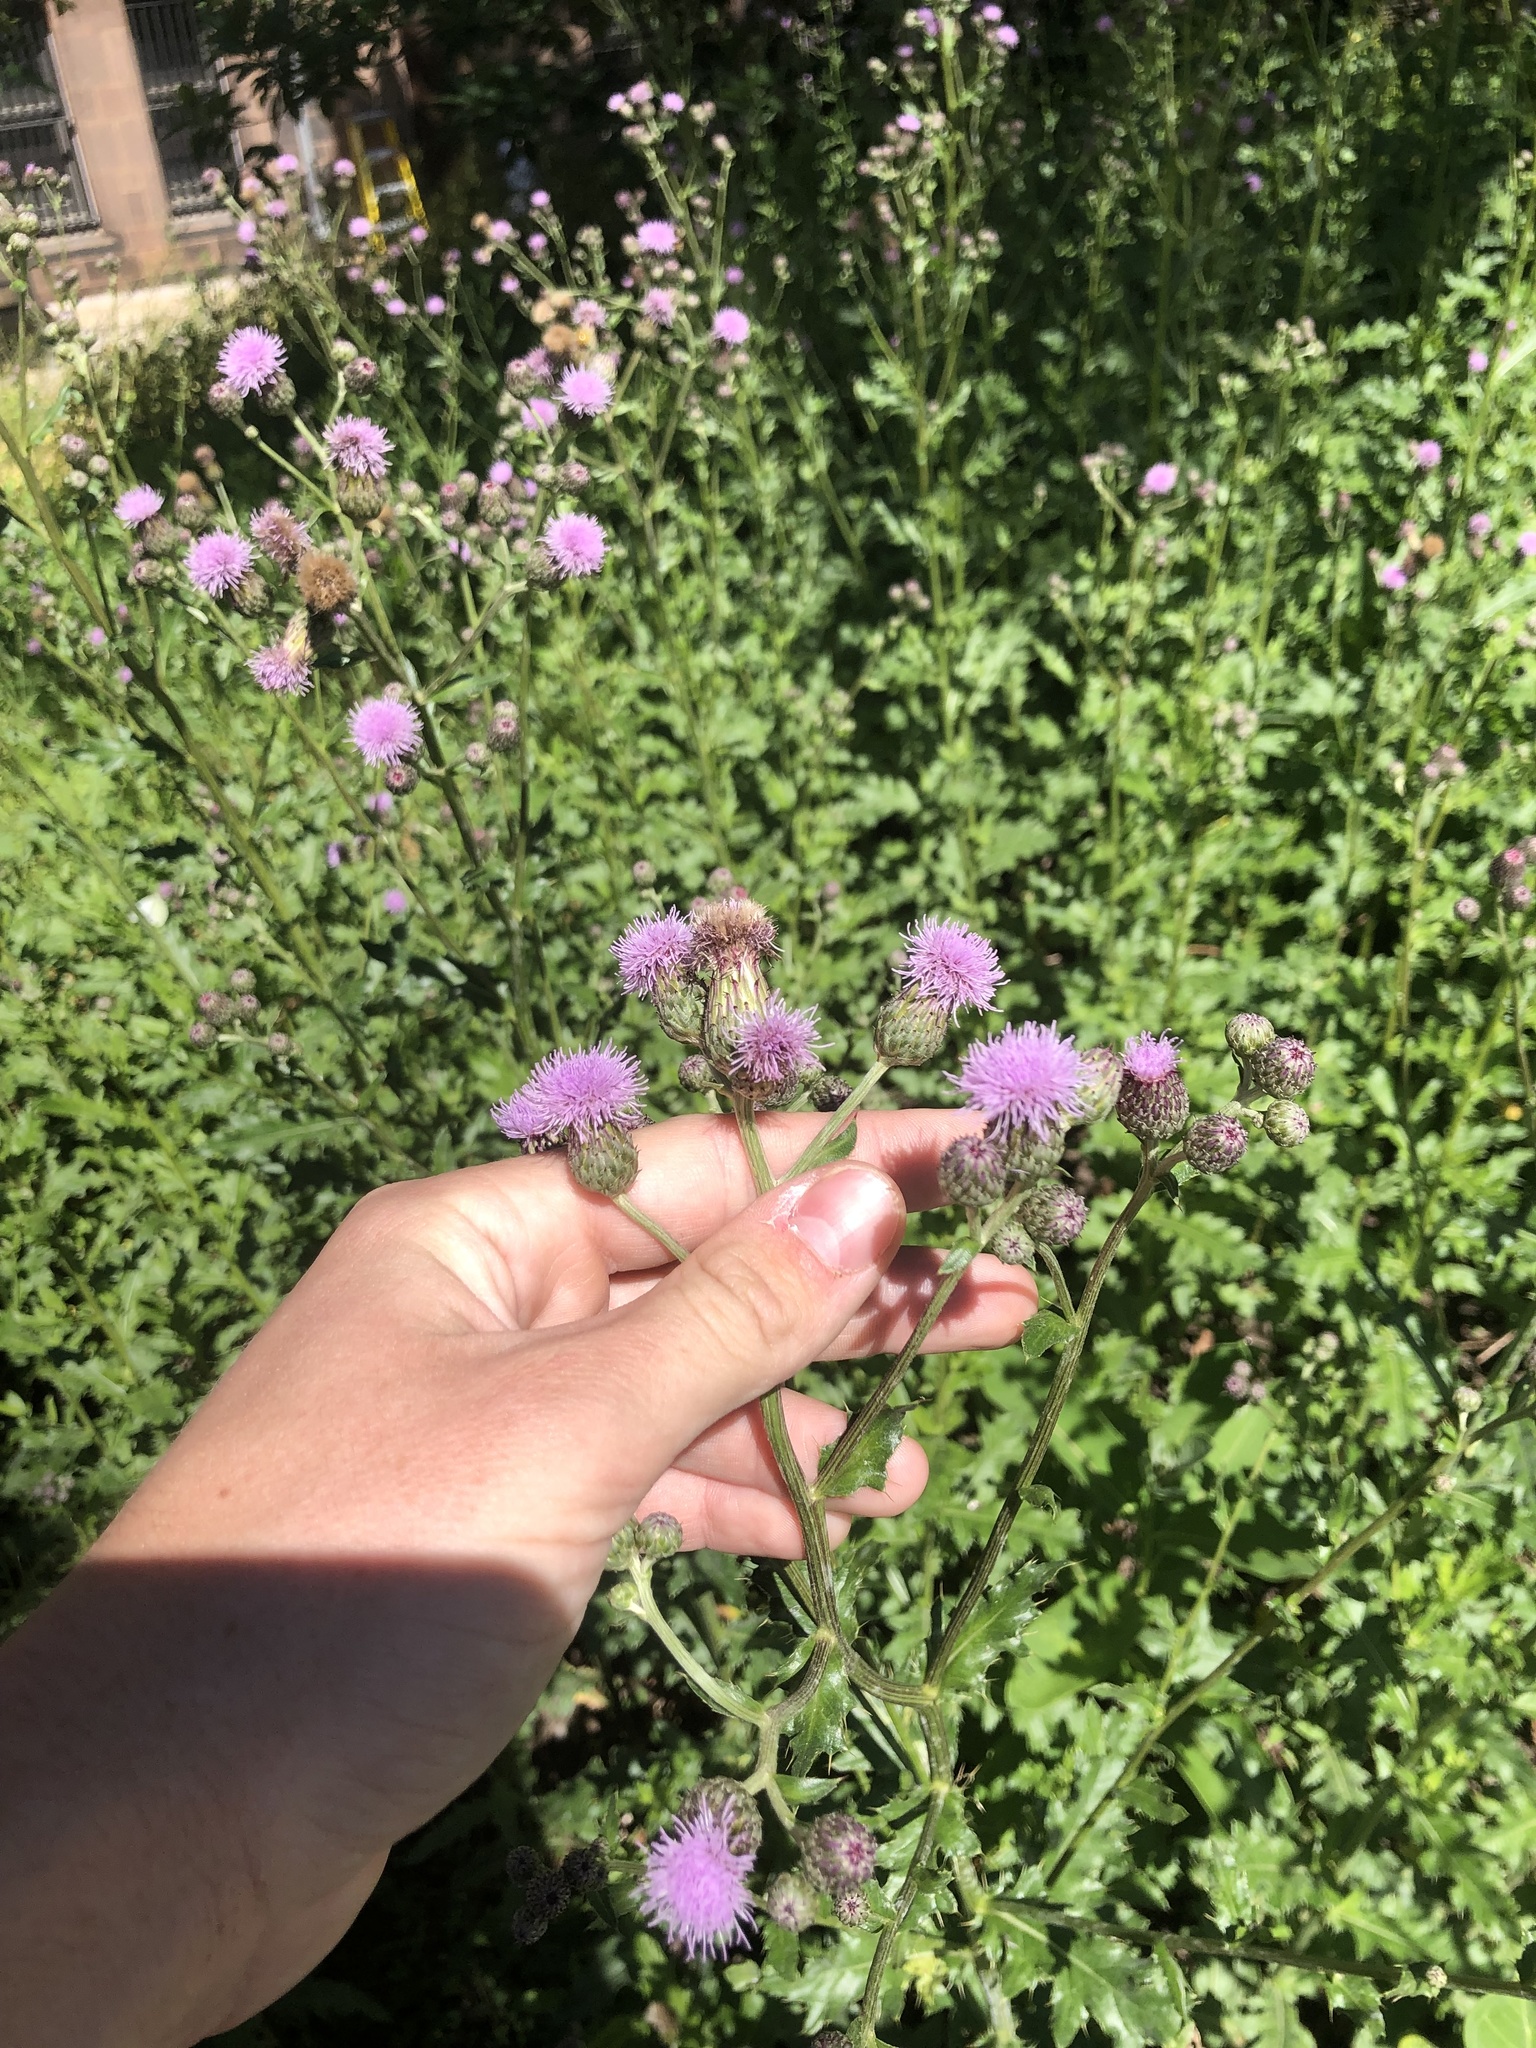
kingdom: Plantae
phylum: Tracheophyta
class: Magnoliopsida
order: Asterales
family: Asteraceae
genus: Cirsium
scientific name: Cirsium arvense
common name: Creeping thistle
